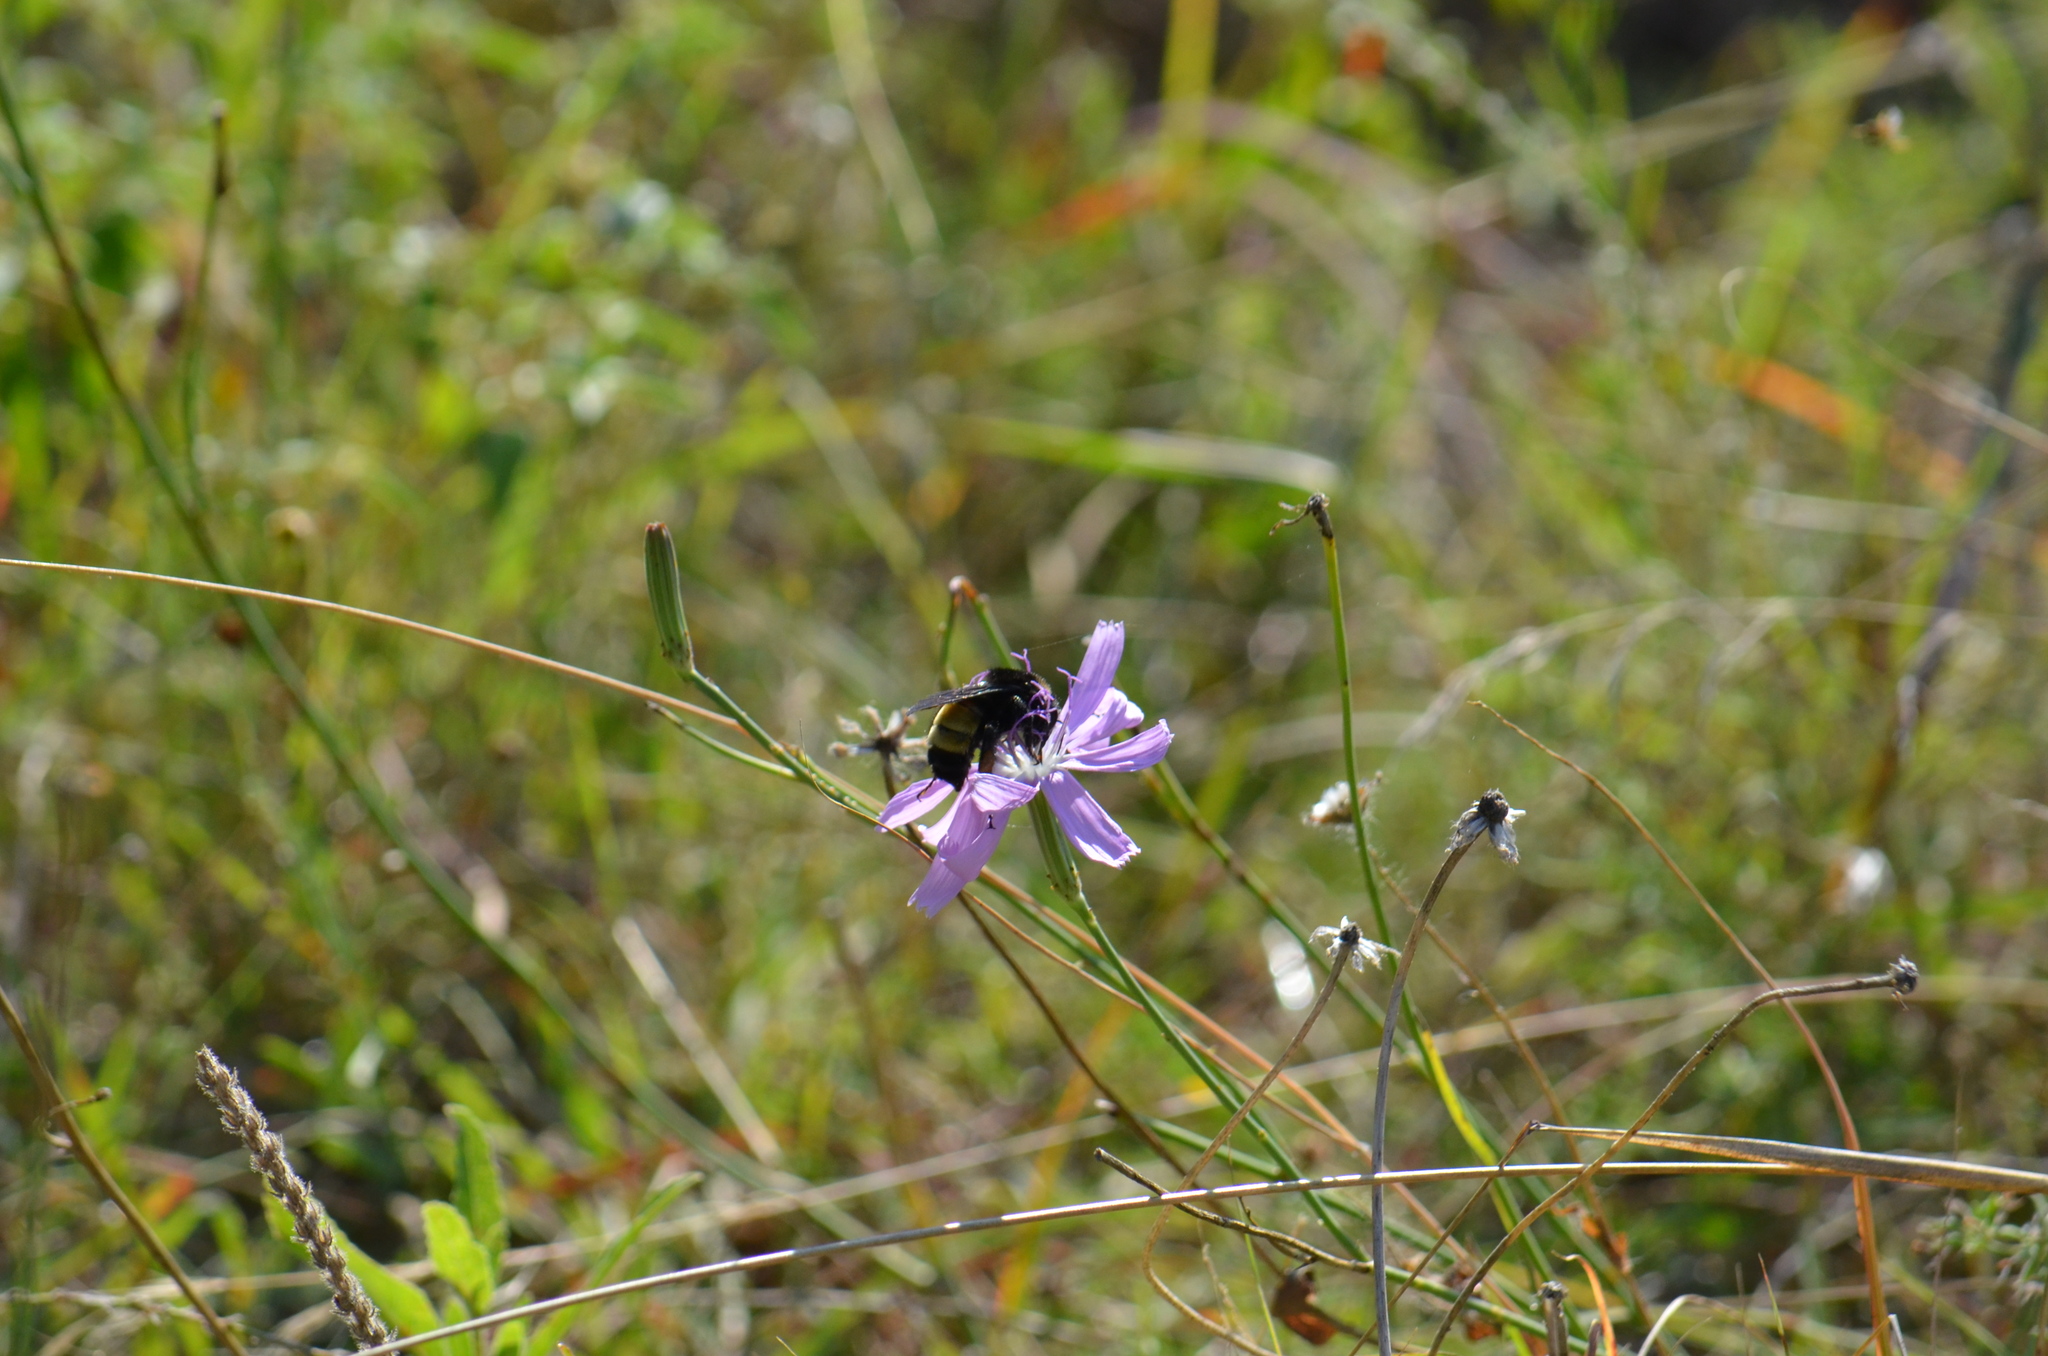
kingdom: Animalia
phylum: Arthropoda
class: Insecta
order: Hymenoptera
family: Apidae
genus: Bombus
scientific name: Bombus pensylvanicus
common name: Bumble bee
